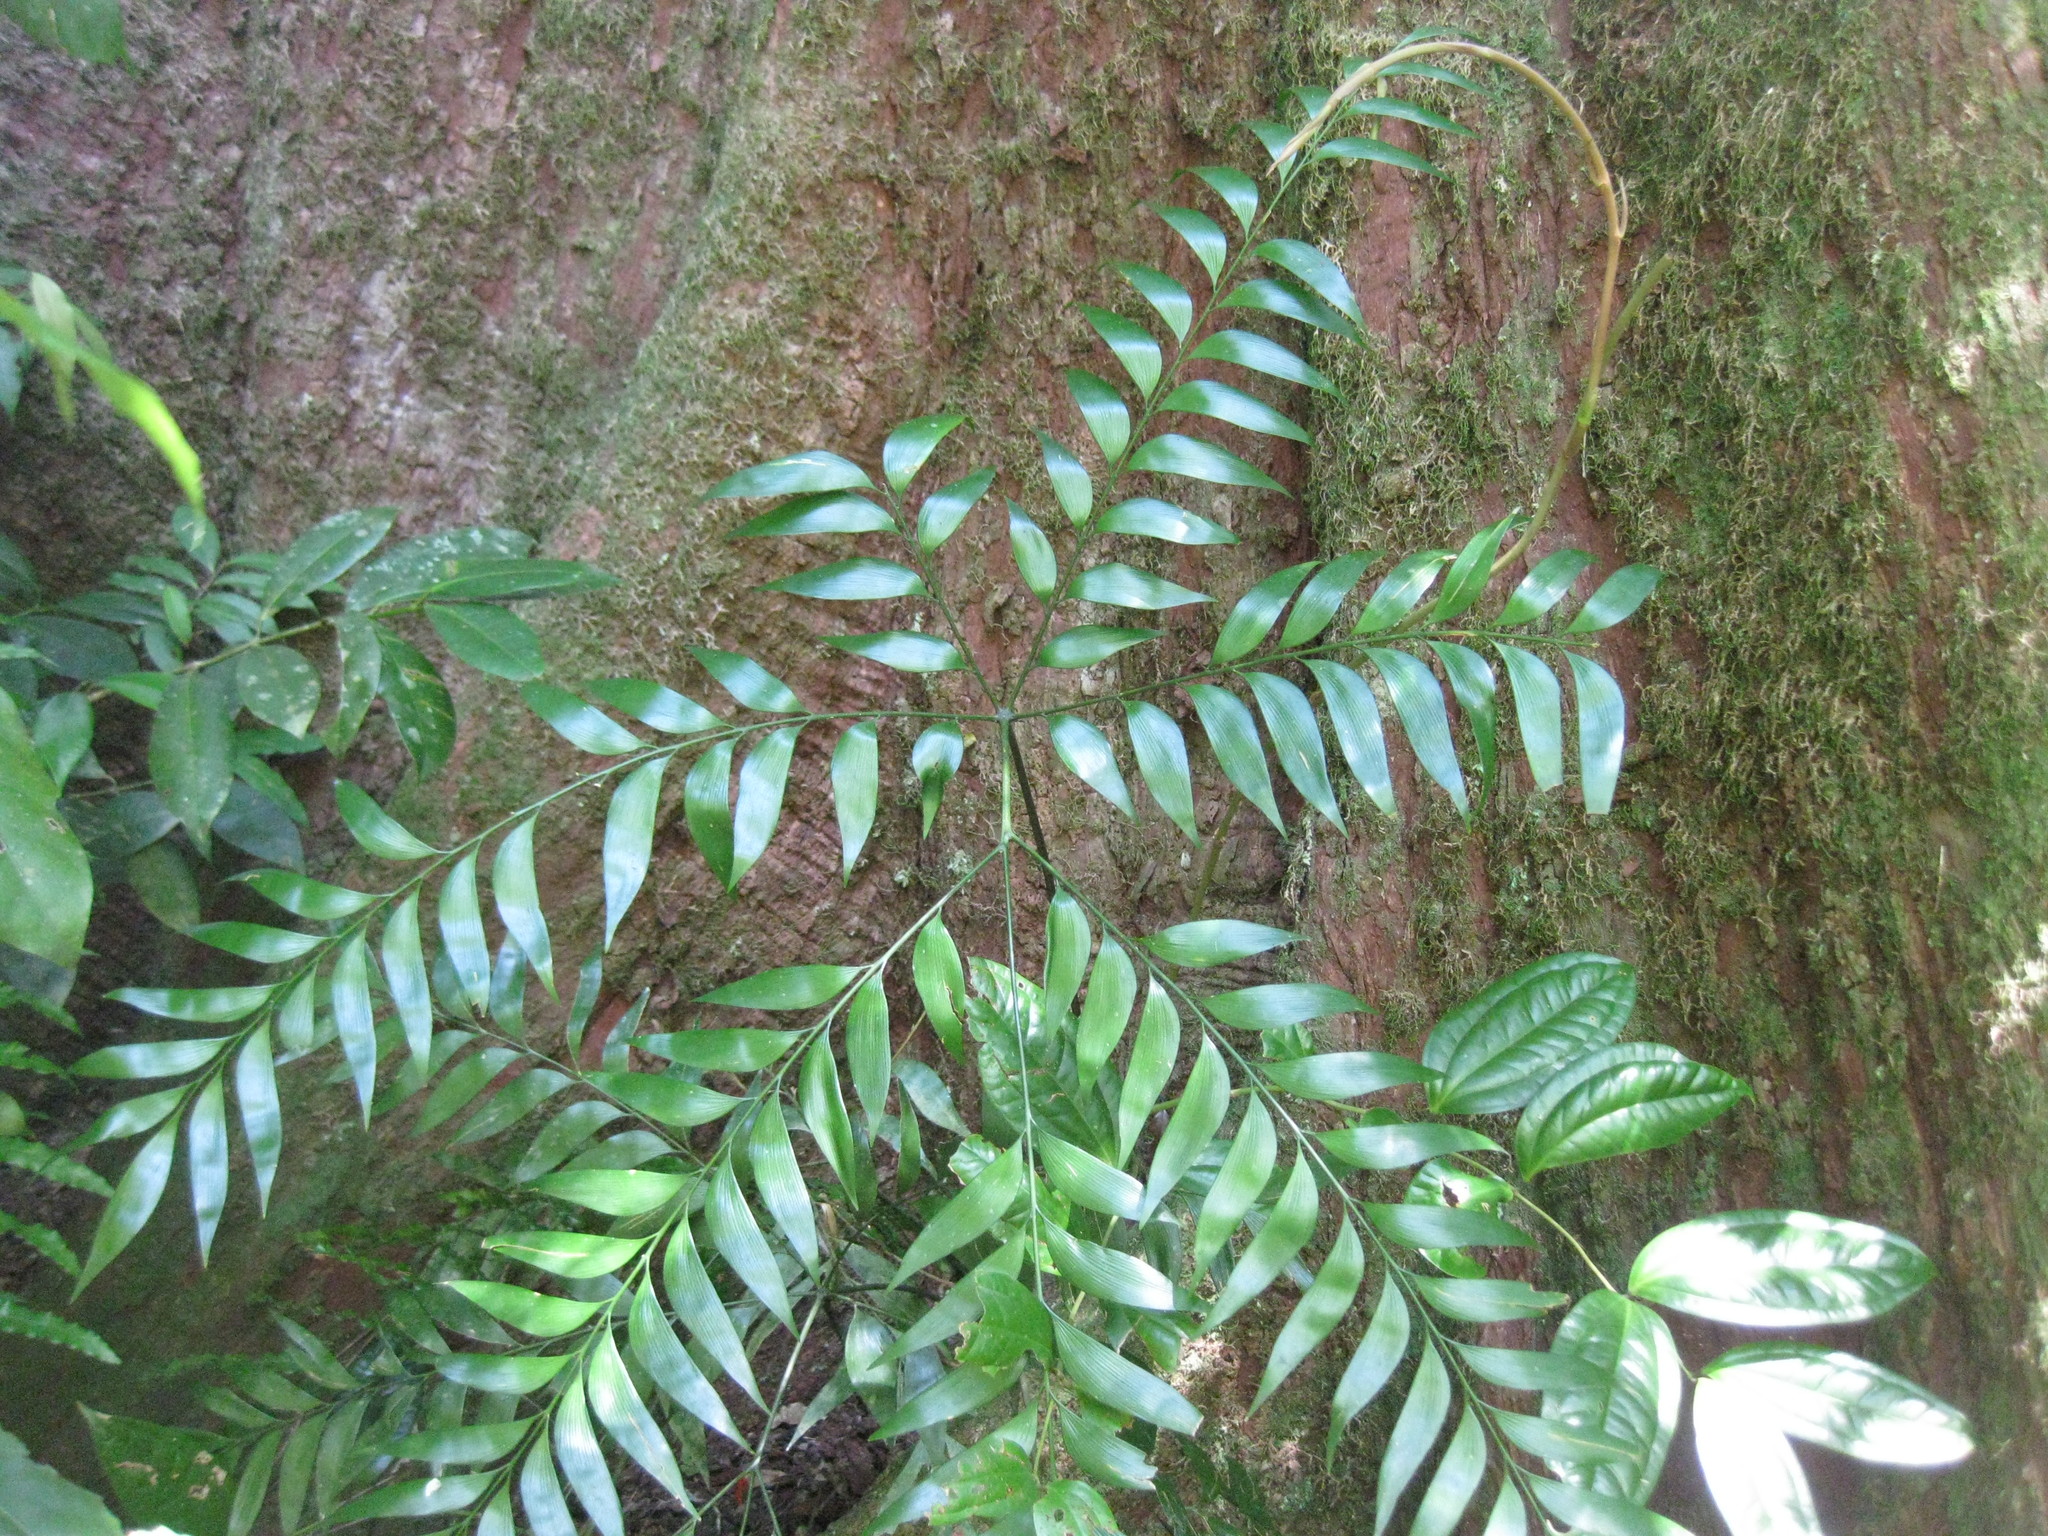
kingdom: Plantae
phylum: Tracheophyta
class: Cycadopsida
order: Cycadales
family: Zamiaceae
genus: Bowenia
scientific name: Bowenia spectabilis
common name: Zamia-fern
